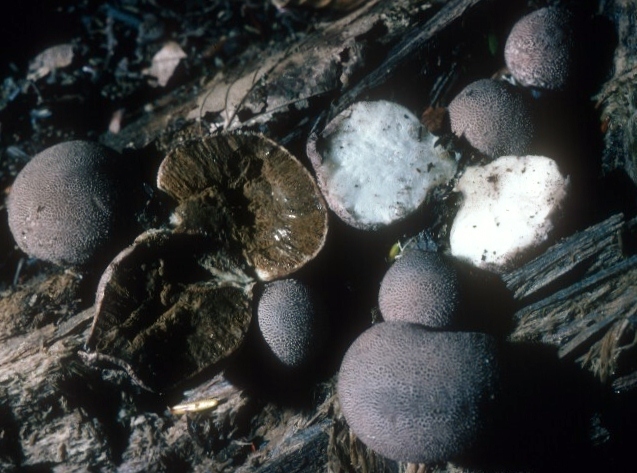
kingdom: Fungi
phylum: Basidiomycota
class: Agaricomycetes
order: Agaricales
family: Lycoperdaceae
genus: Lycoperdon
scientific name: Lycoperdon nigrescens
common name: Blackish puffball
